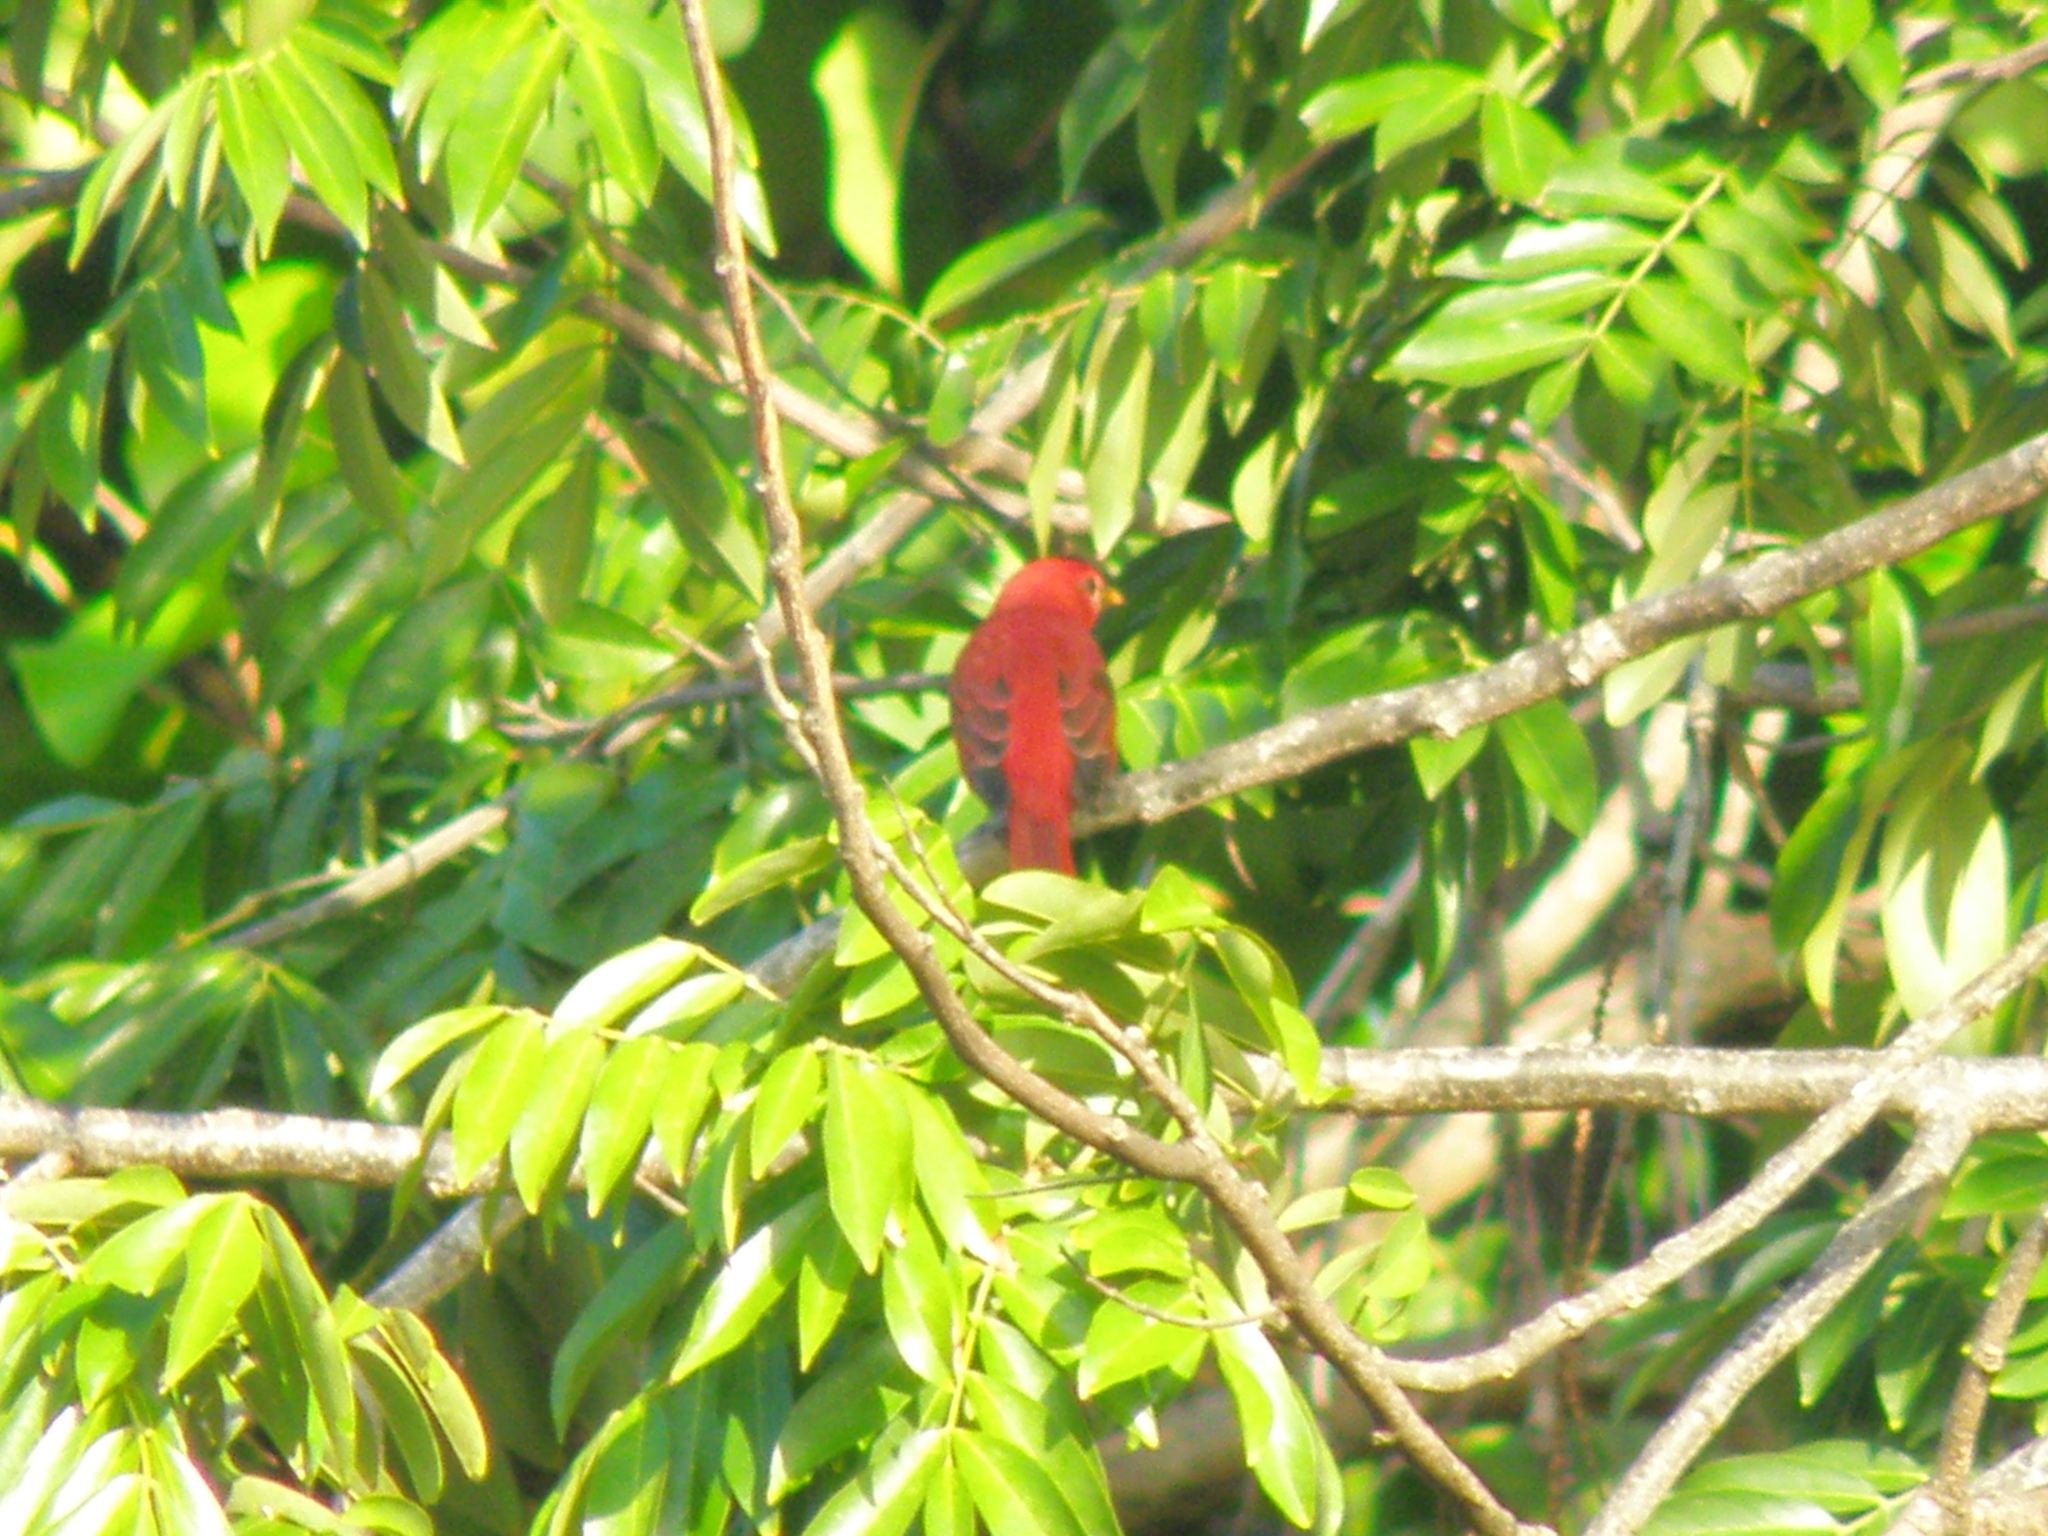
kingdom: Animalia
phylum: Chordata
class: Aves
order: Passeriformes
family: Cardinalidae
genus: Piranga
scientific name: Piranga rubra
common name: Summer tanager
